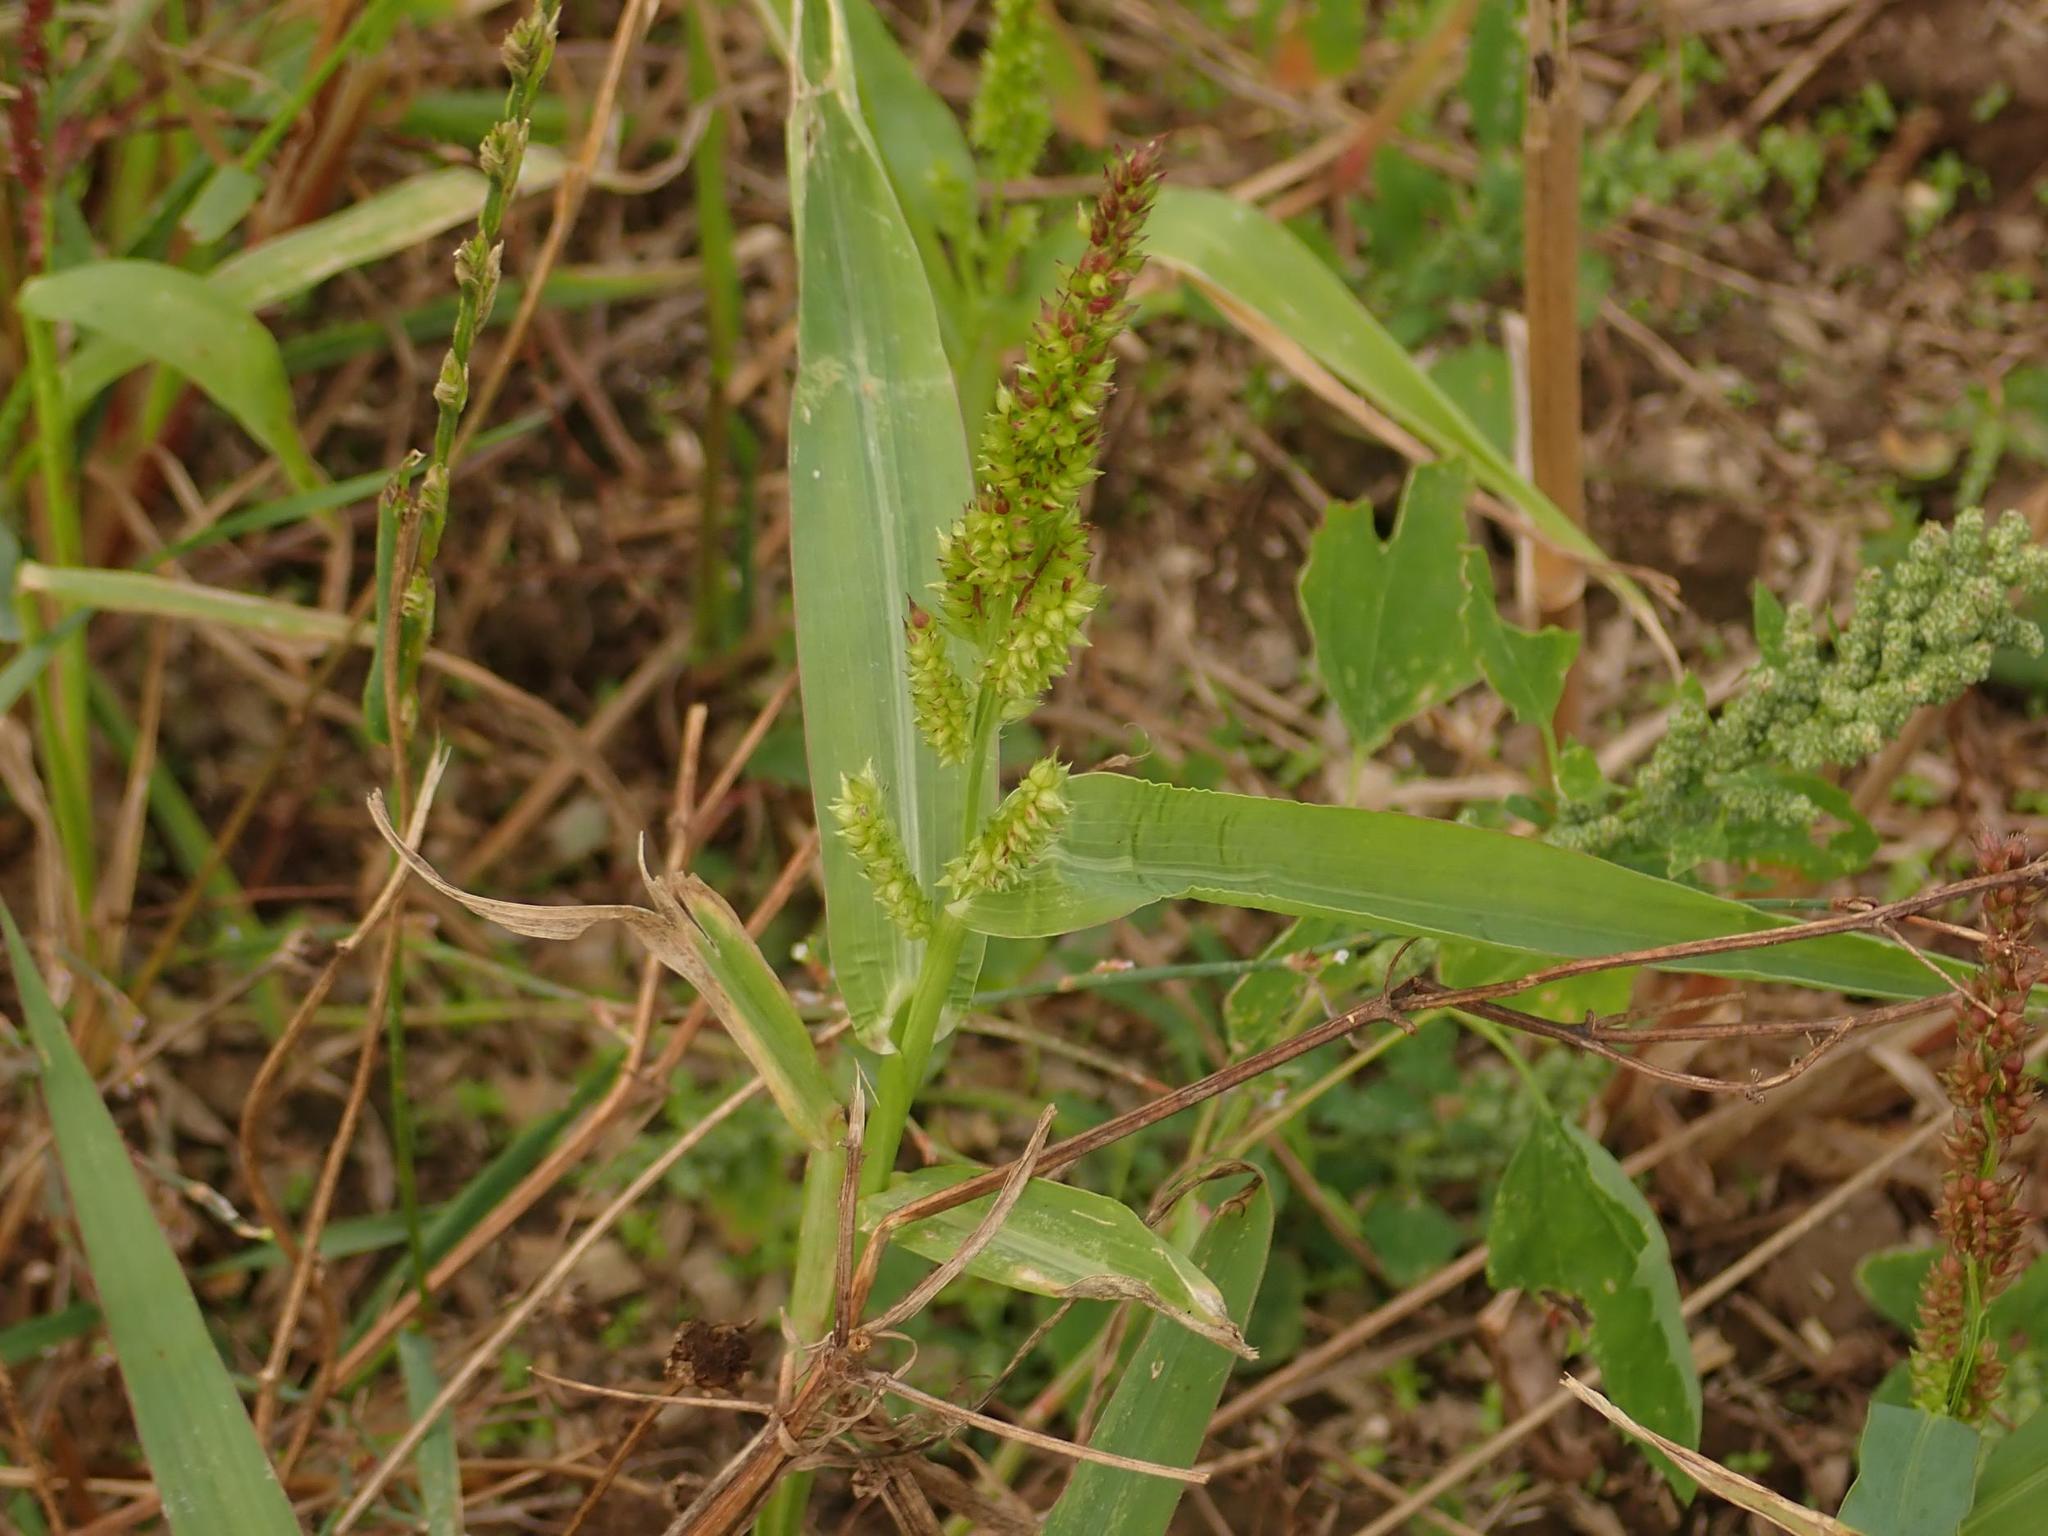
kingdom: Plantae
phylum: Tracheophyta
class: Liliopsida
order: Poales
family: Poaceae
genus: Echinochloa
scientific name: Echinochloa crus-galli
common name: Cockspur
